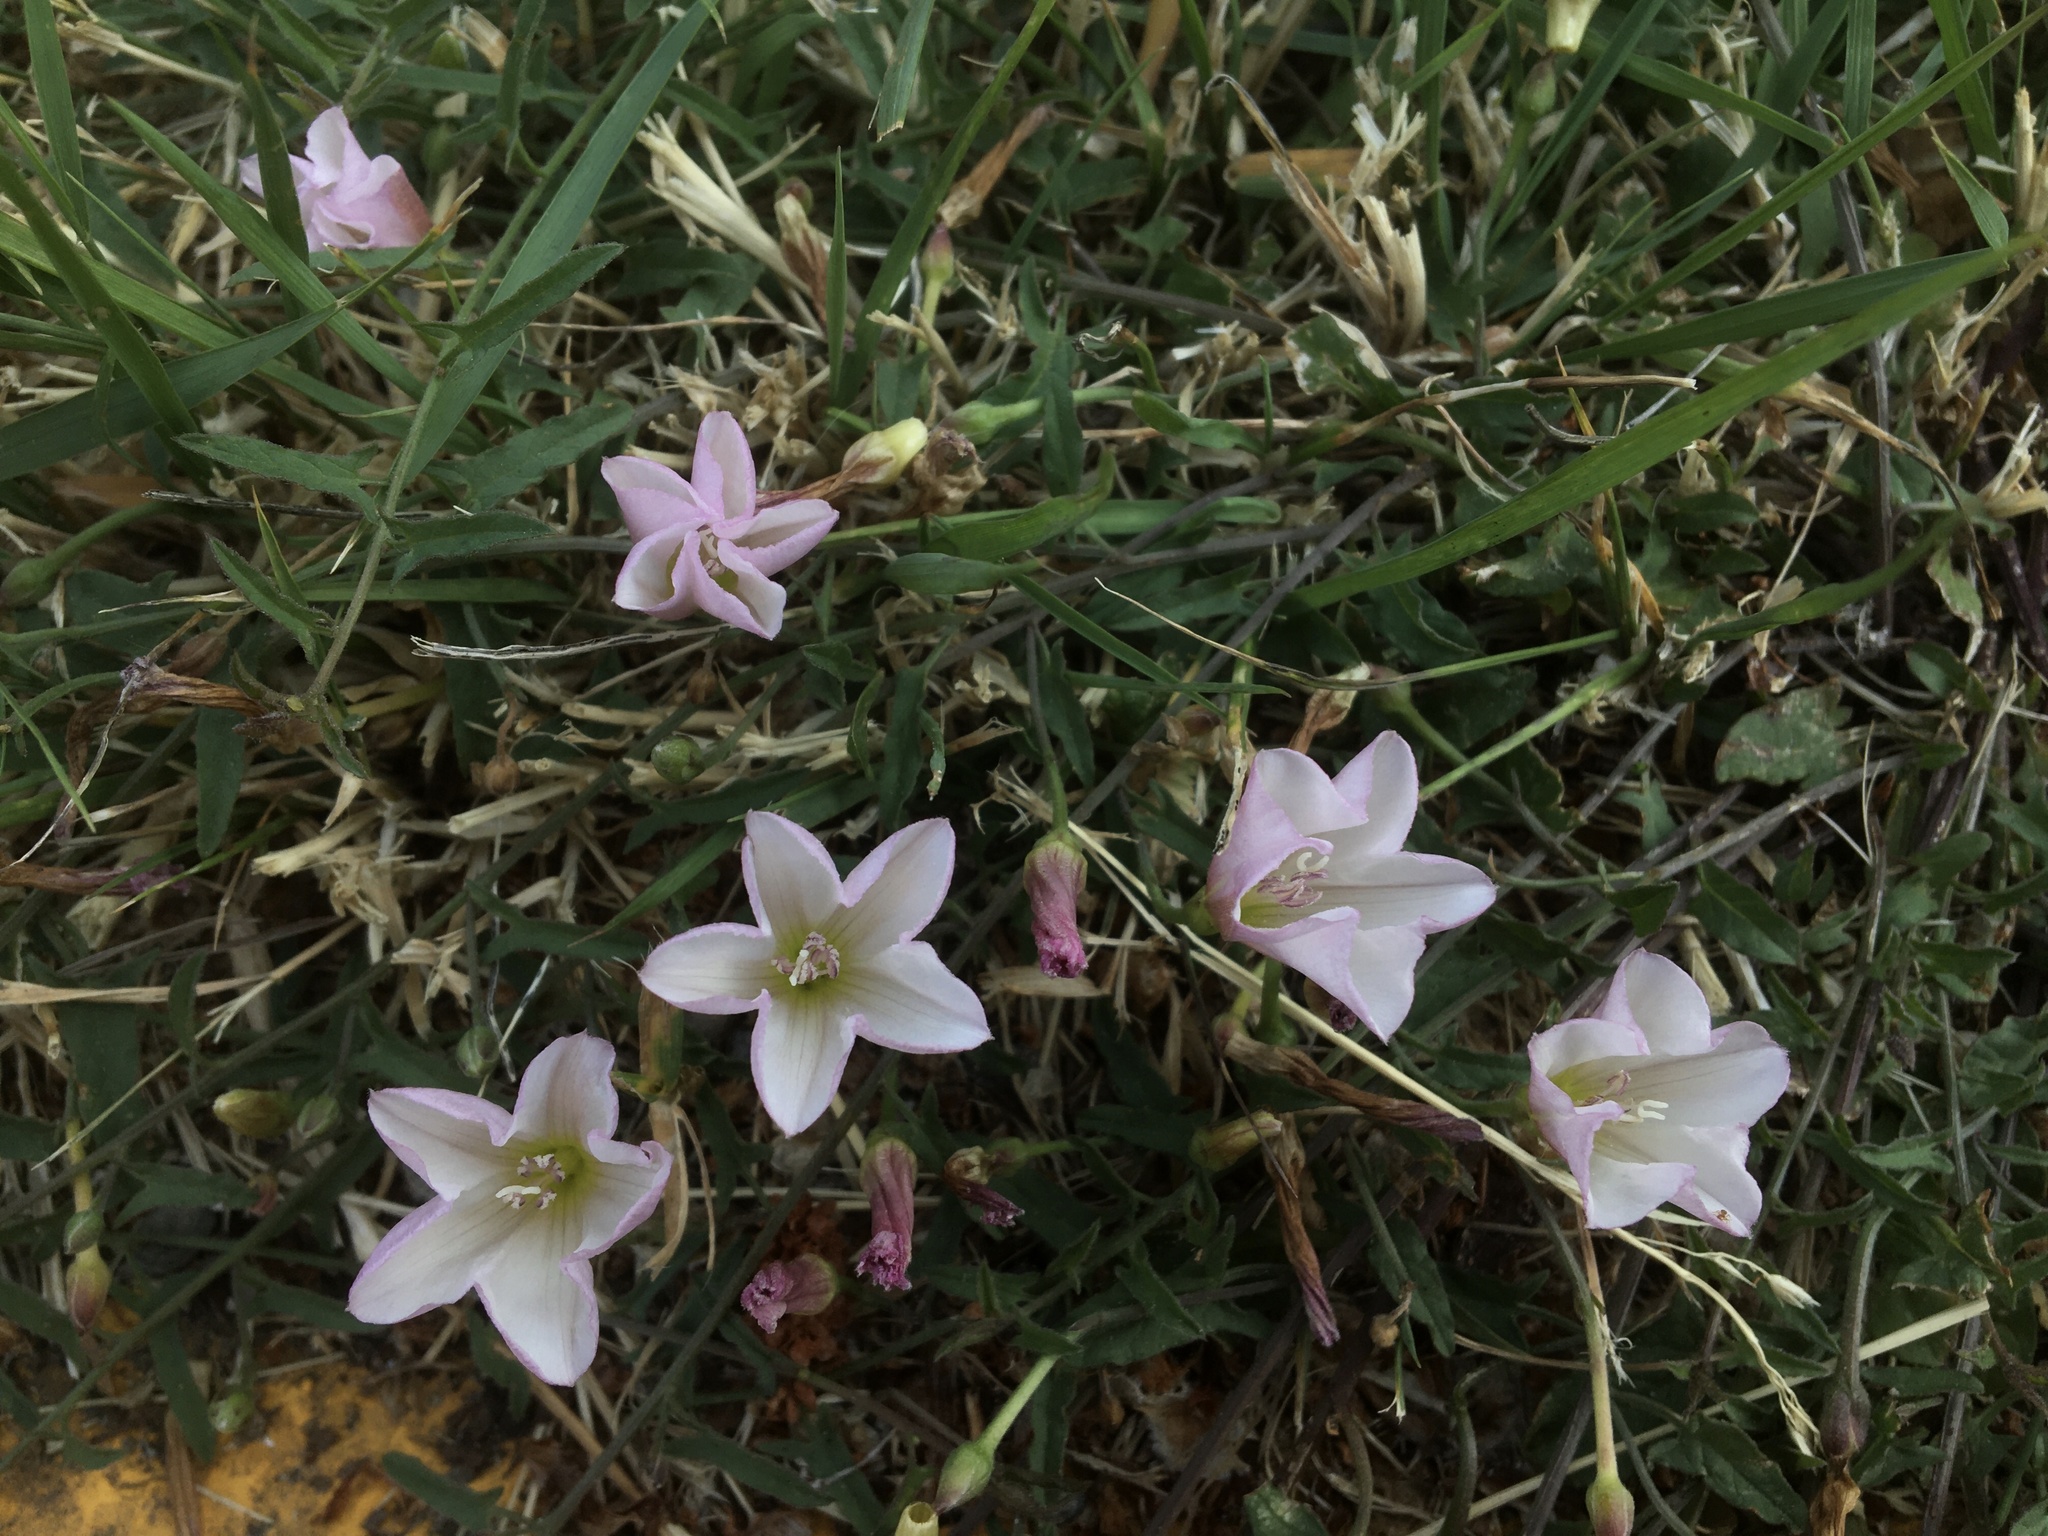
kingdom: Plantae
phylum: Tracheophyta
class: Magnoliopsida
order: Solanales
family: Convolvulaceae
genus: Convolvulus
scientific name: Convolvulus arvensis
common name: Field bindweed
